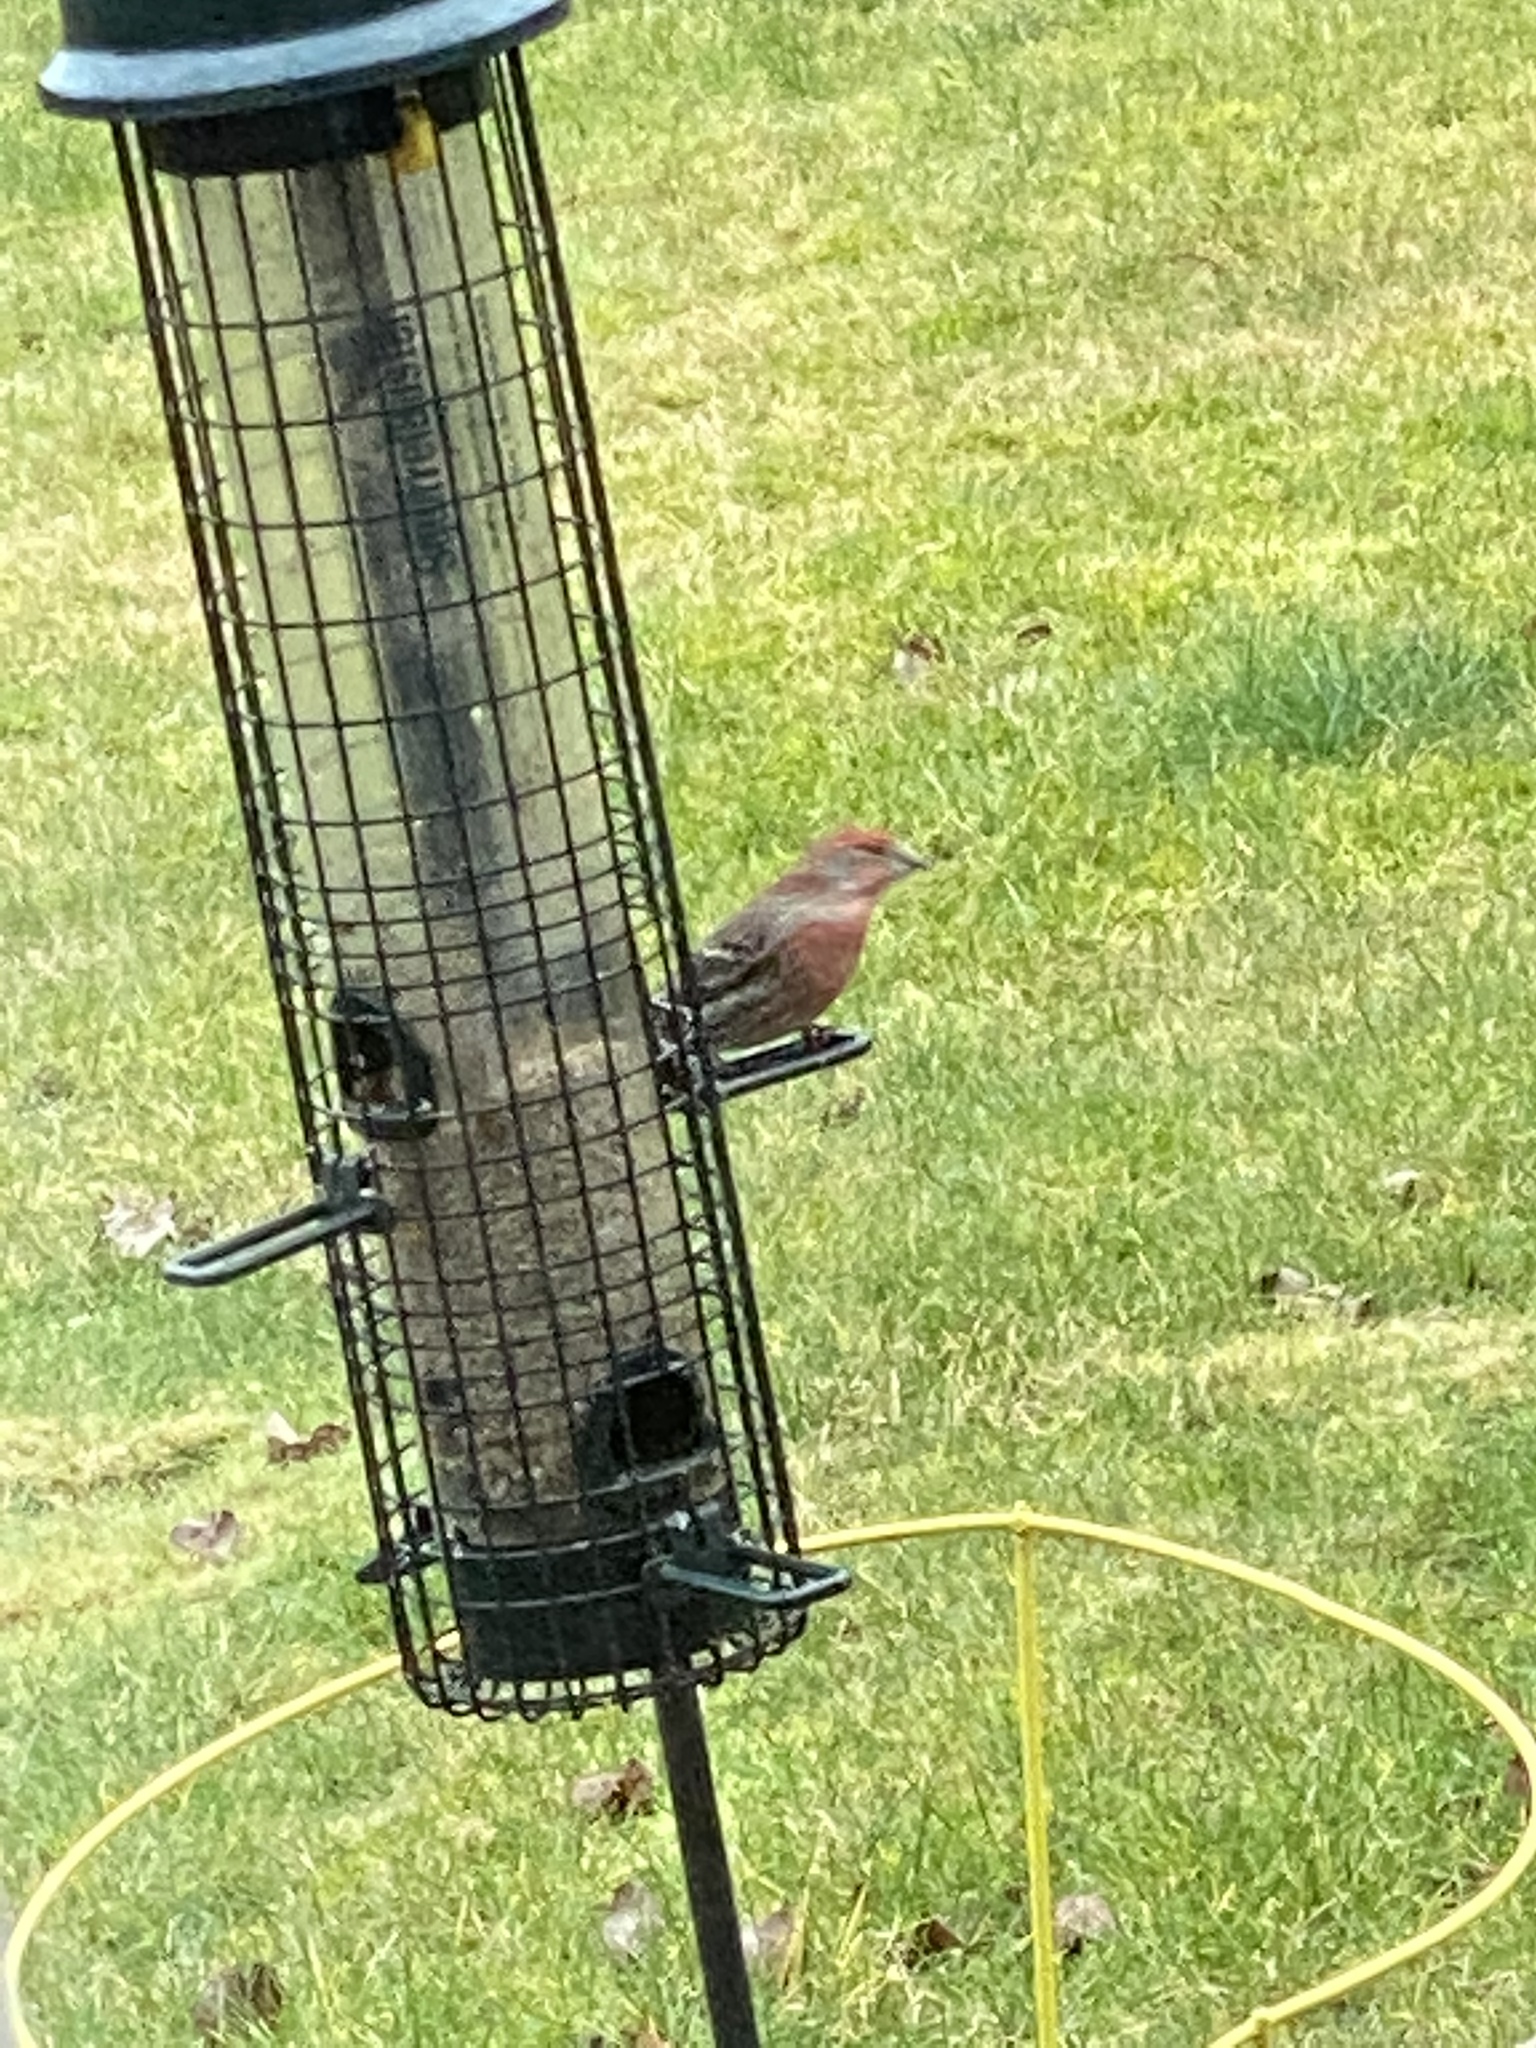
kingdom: Animalia
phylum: Chordata
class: Aves
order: Passeriformes
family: Fringillidae
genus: Haemorhous
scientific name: Haemorhous mexicanus
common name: House finch
